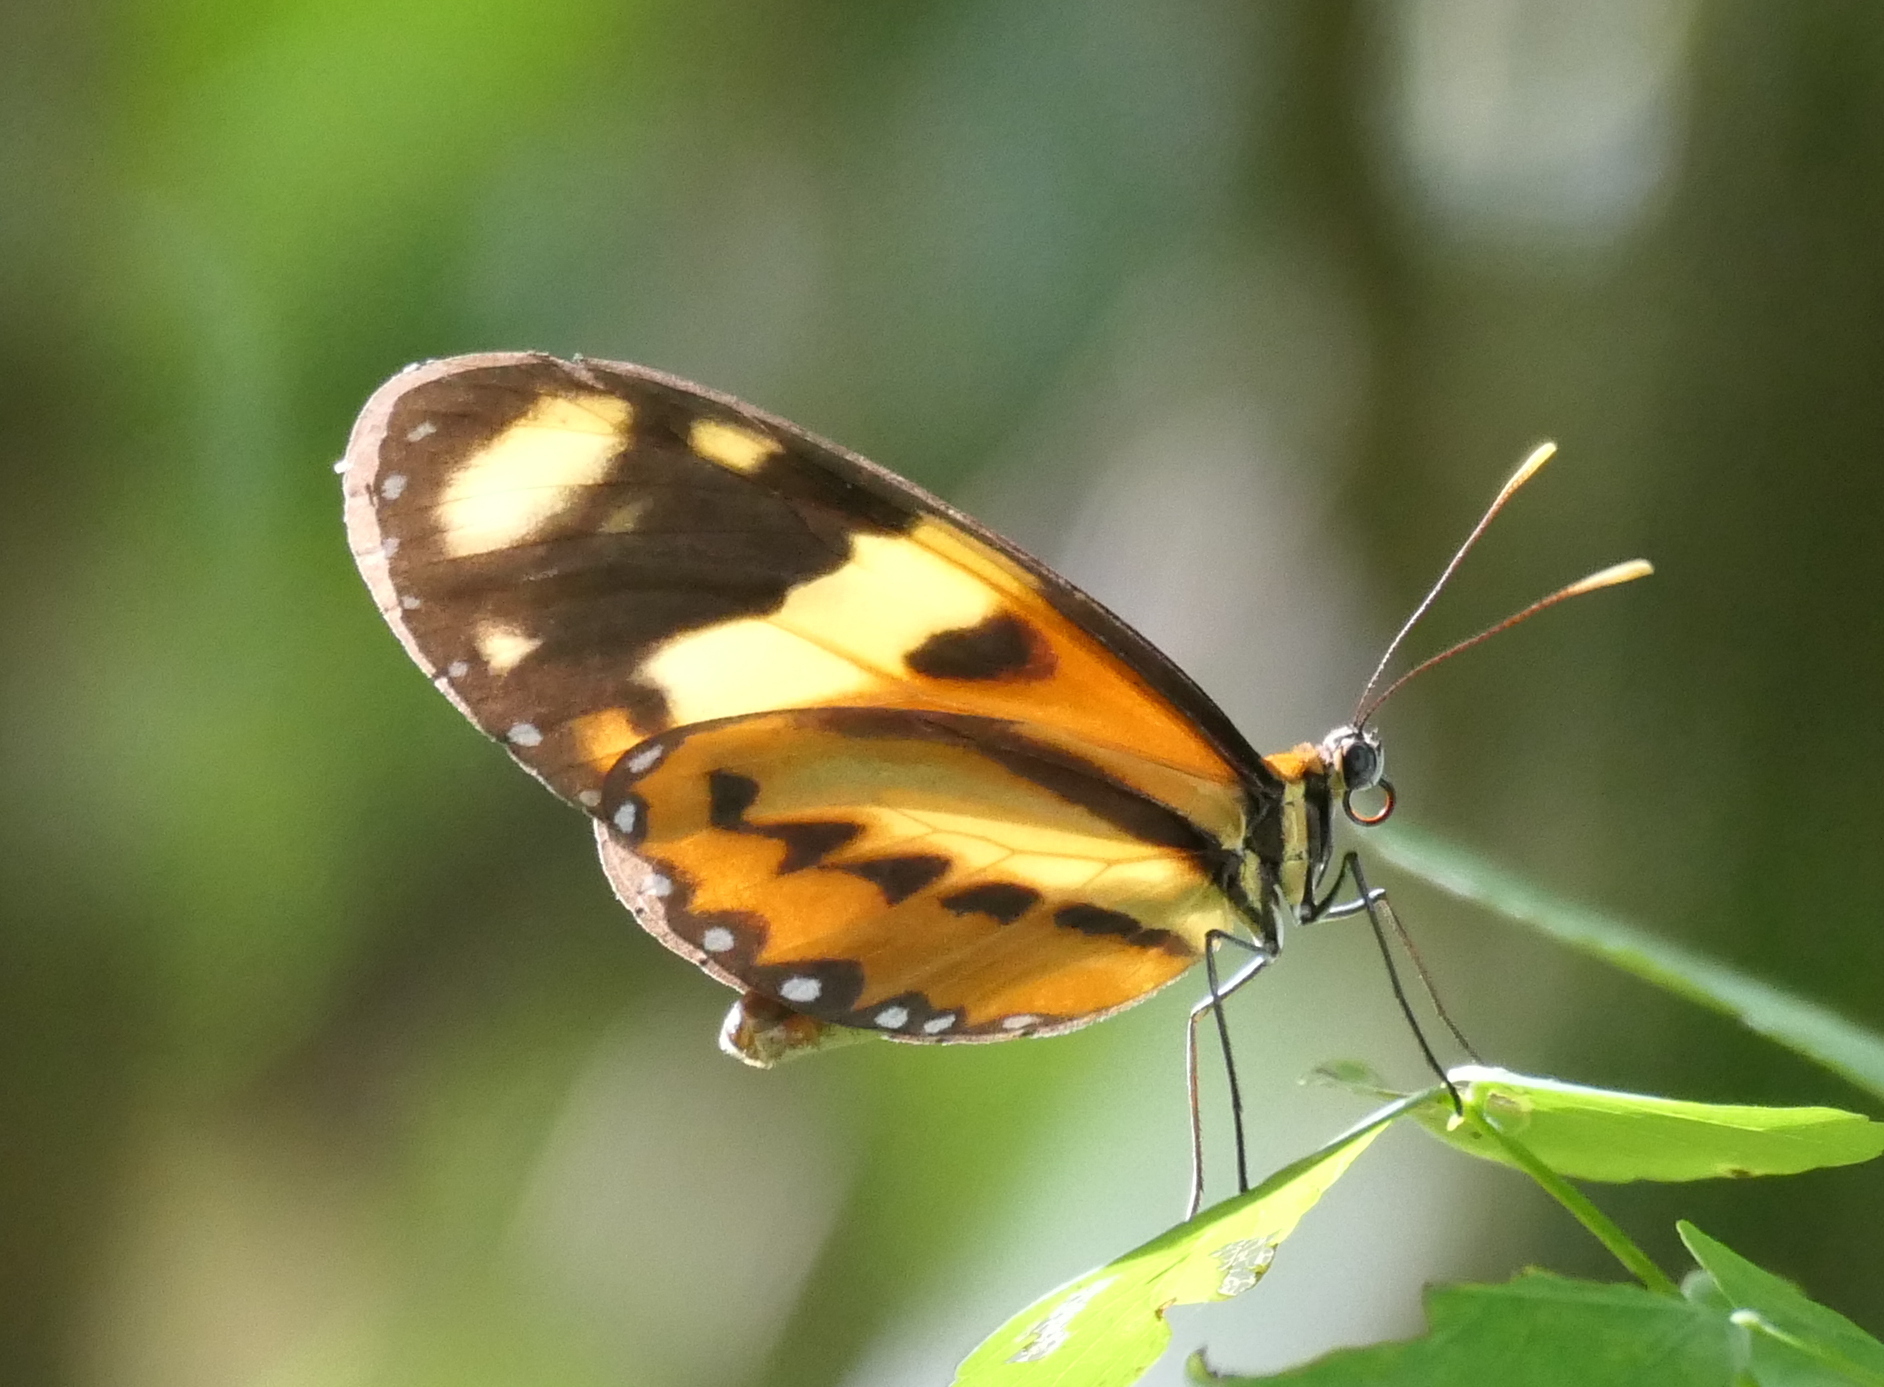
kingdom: Animalia
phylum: Arthropoda
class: Insecta
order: Lepidoptera
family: Nymphalidae
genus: Mechanitis
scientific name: Mechanitis lysimnia
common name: Lysimnia tigerwing
